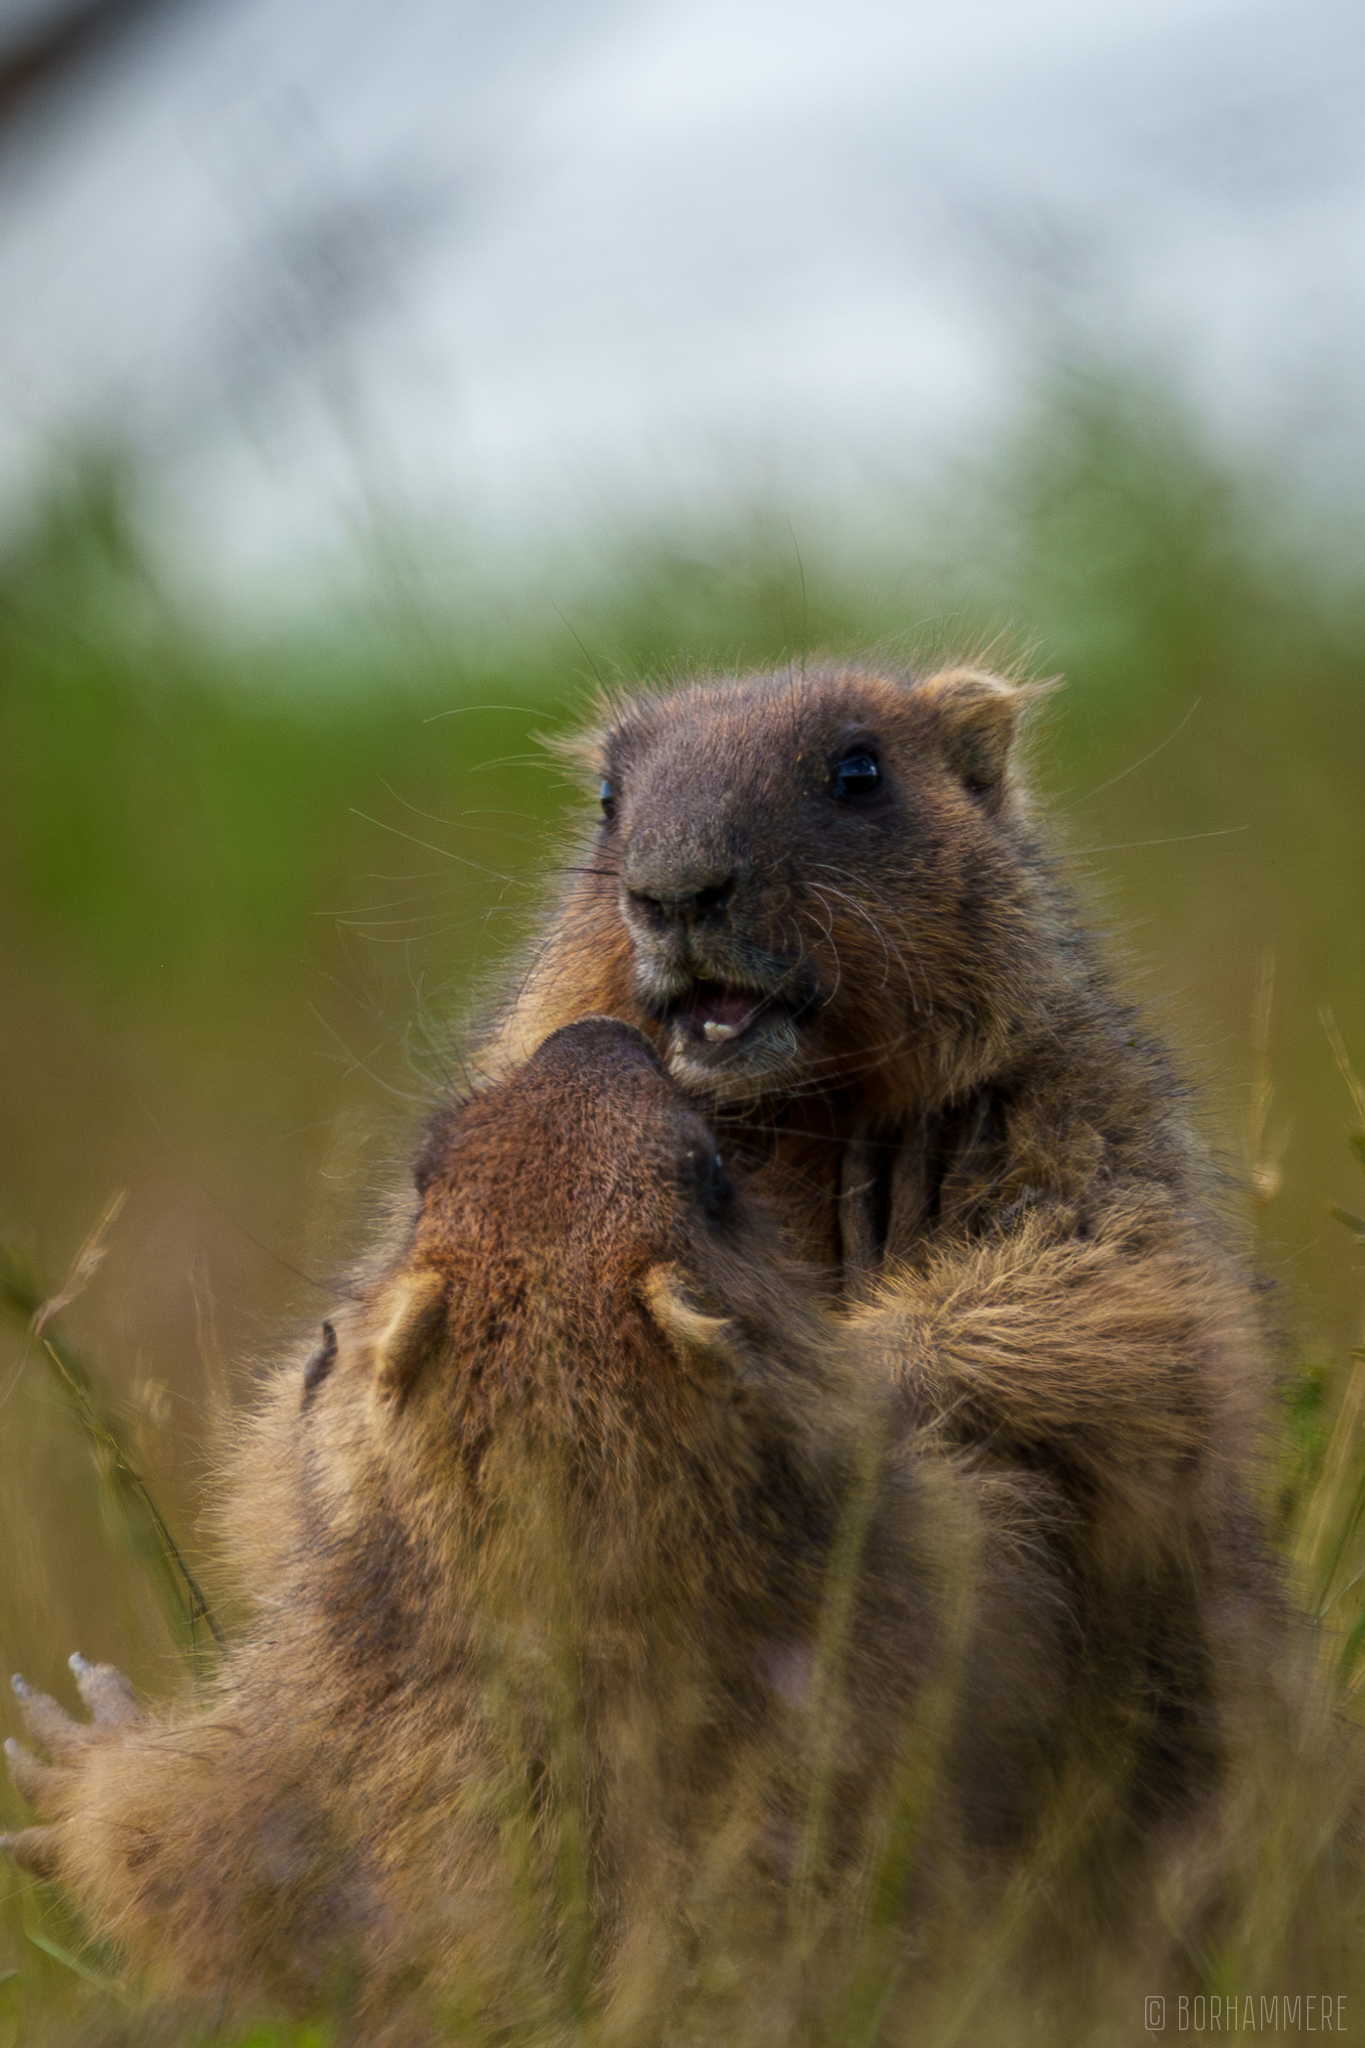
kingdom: Animalia
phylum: Chordata
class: Mammalia
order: Rodentia
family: Sciuridae
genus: Marmota
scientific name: Marmota bobak
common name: Bobak marmot
